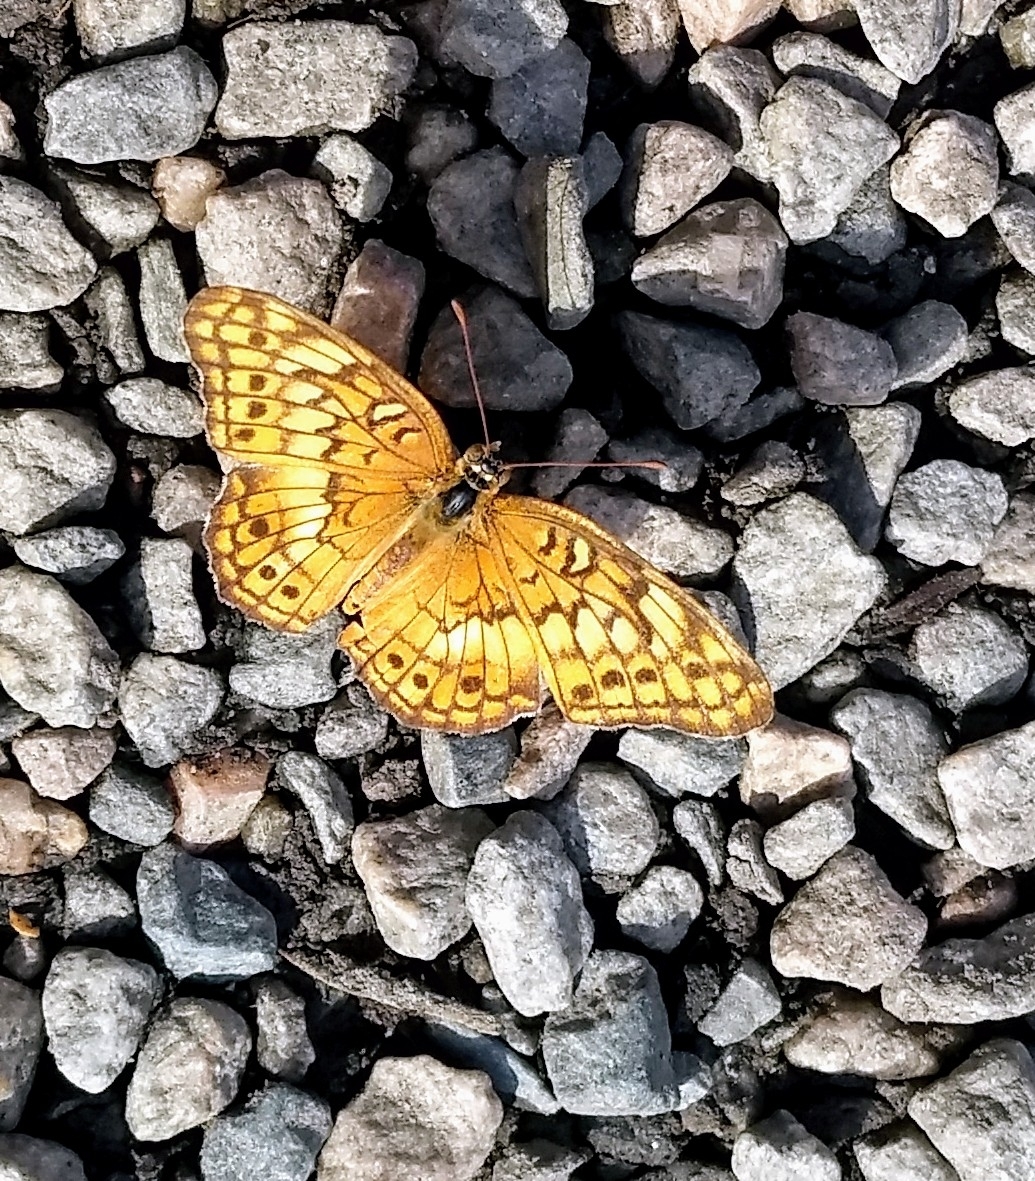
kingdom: Animalia
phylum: Arthropoda
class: Insecta
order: Lepidoptera
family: Nymphalidae
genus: Euptoieta
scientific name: Euptoieta claudia
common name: Variegated fritillary
